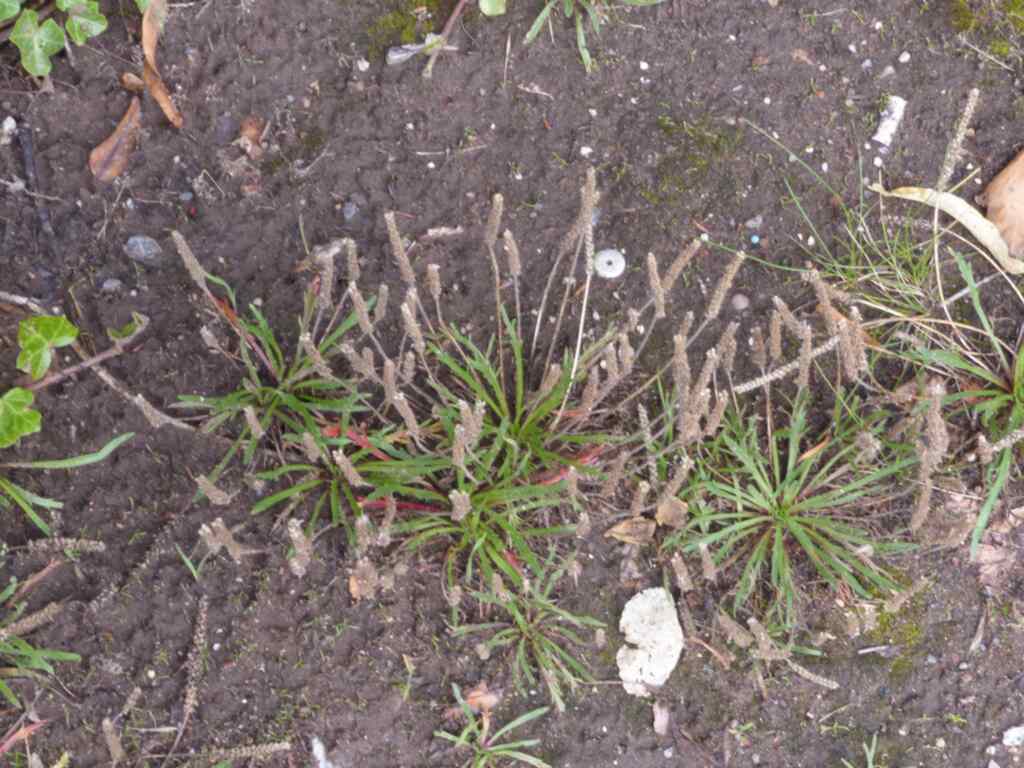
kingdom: Plantae
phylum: Tracheophyta
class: Magnoliopsida
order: Lamiales
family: Plantaginaceae
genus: Plantago
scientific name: Plantago coronopus
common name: Buck's-horn plantain
